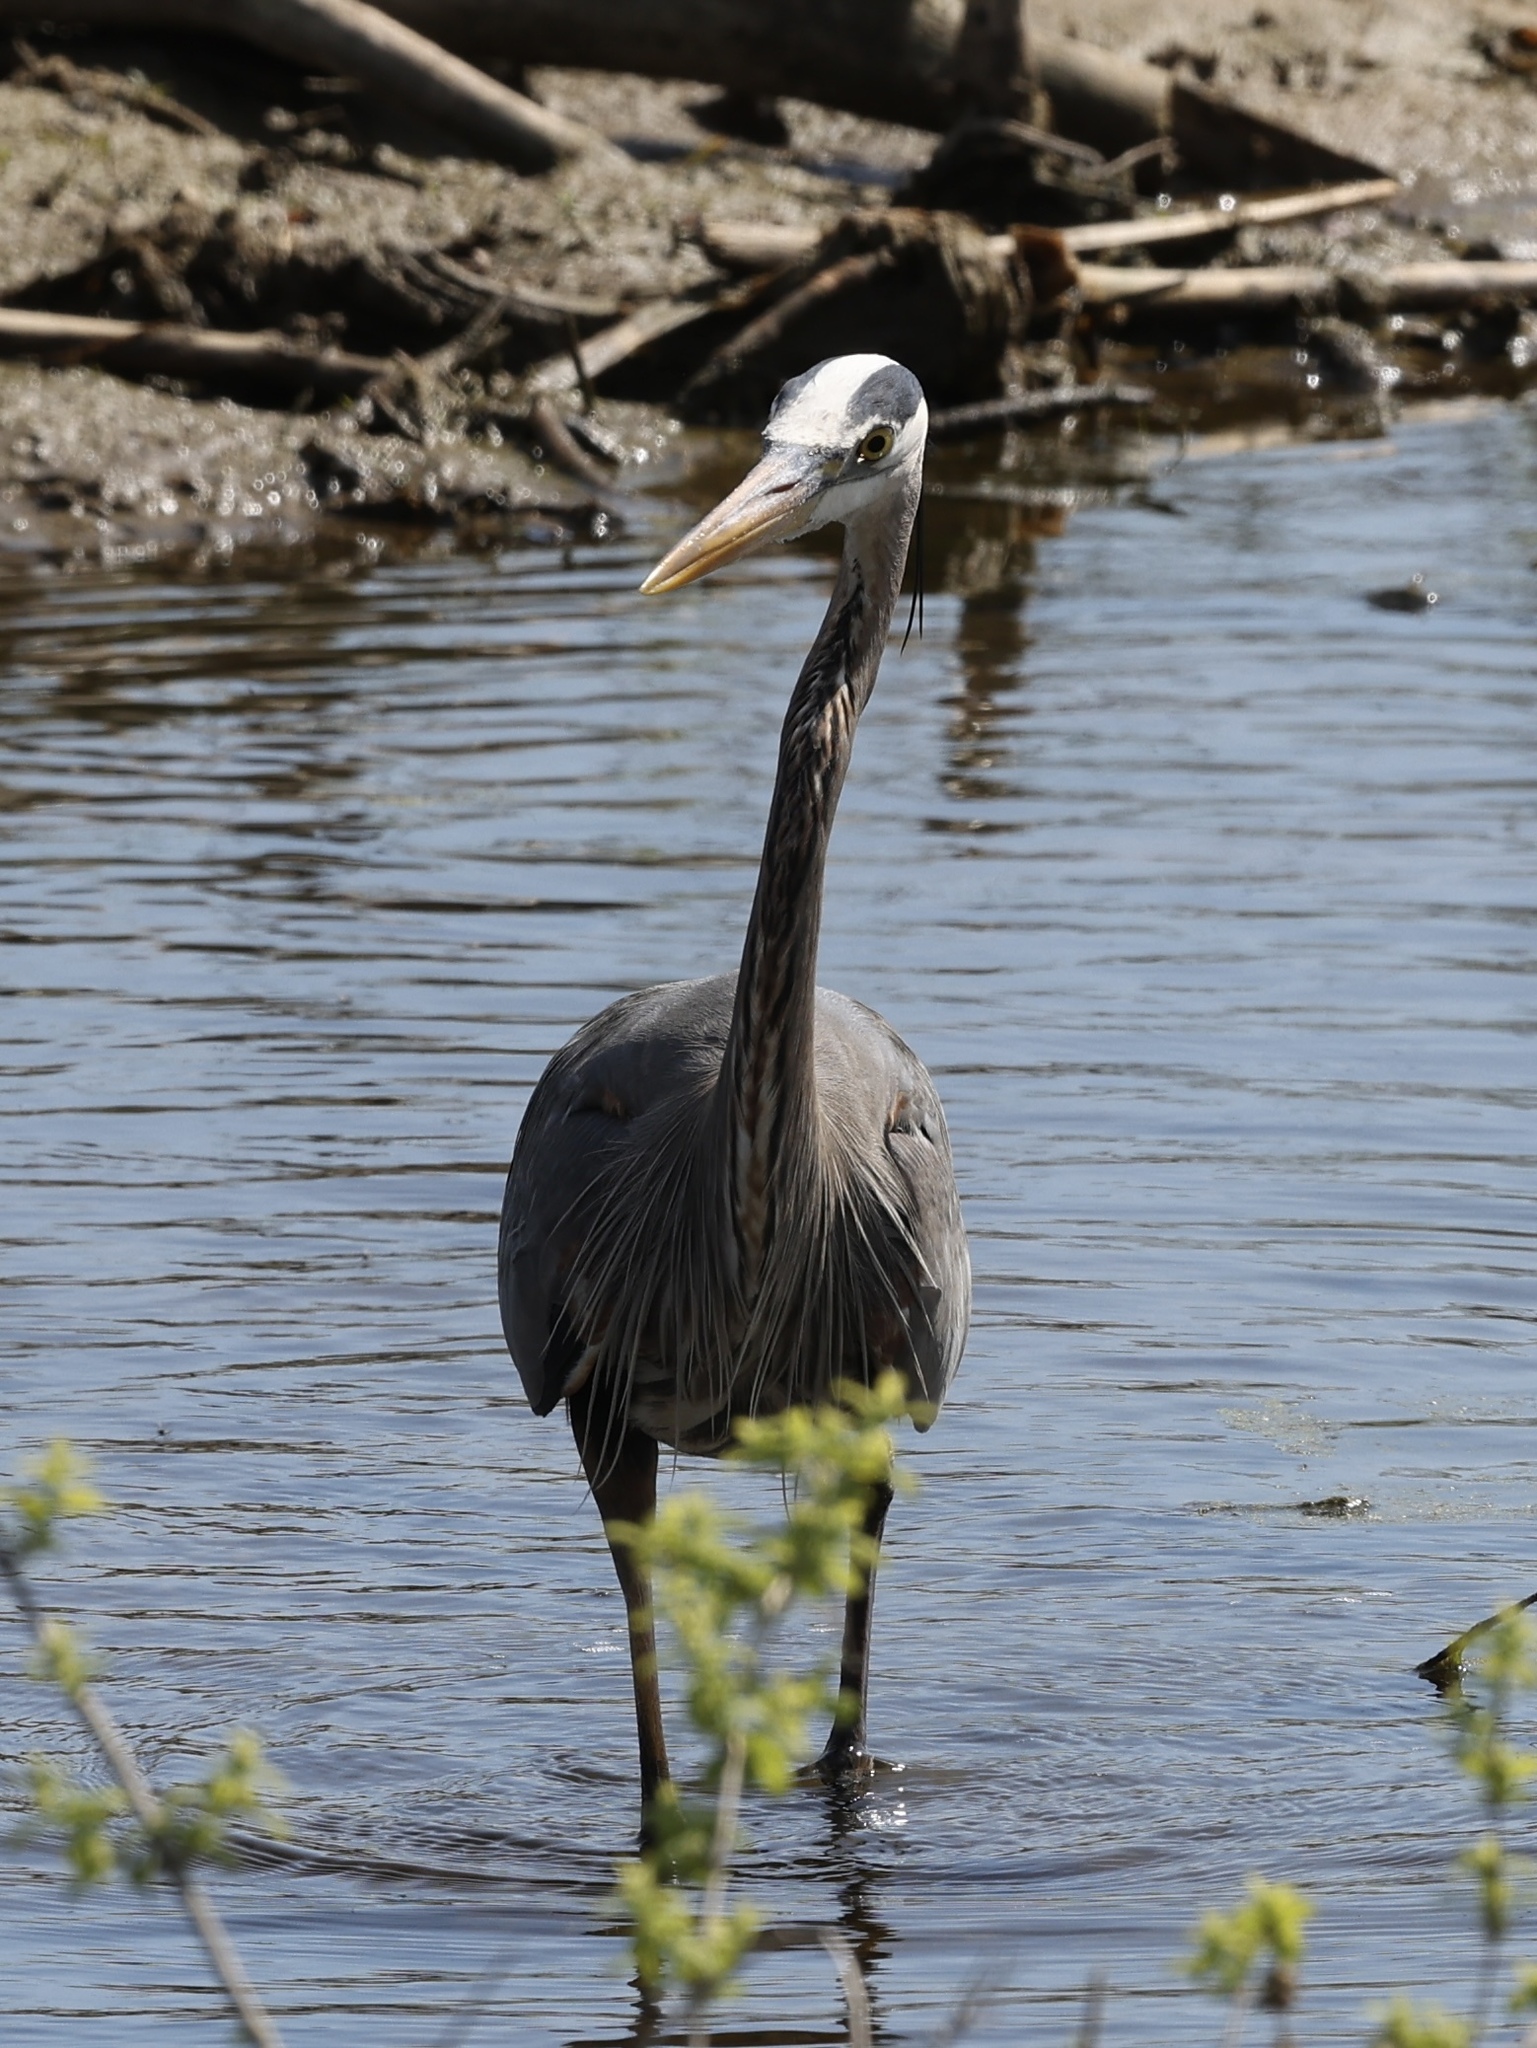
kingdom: Animalia
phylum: Chordata
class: Aves
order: Pelecaniformes
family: Ardeidae
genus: Ardea
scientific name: Ardea herodias
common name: Great blue heron
